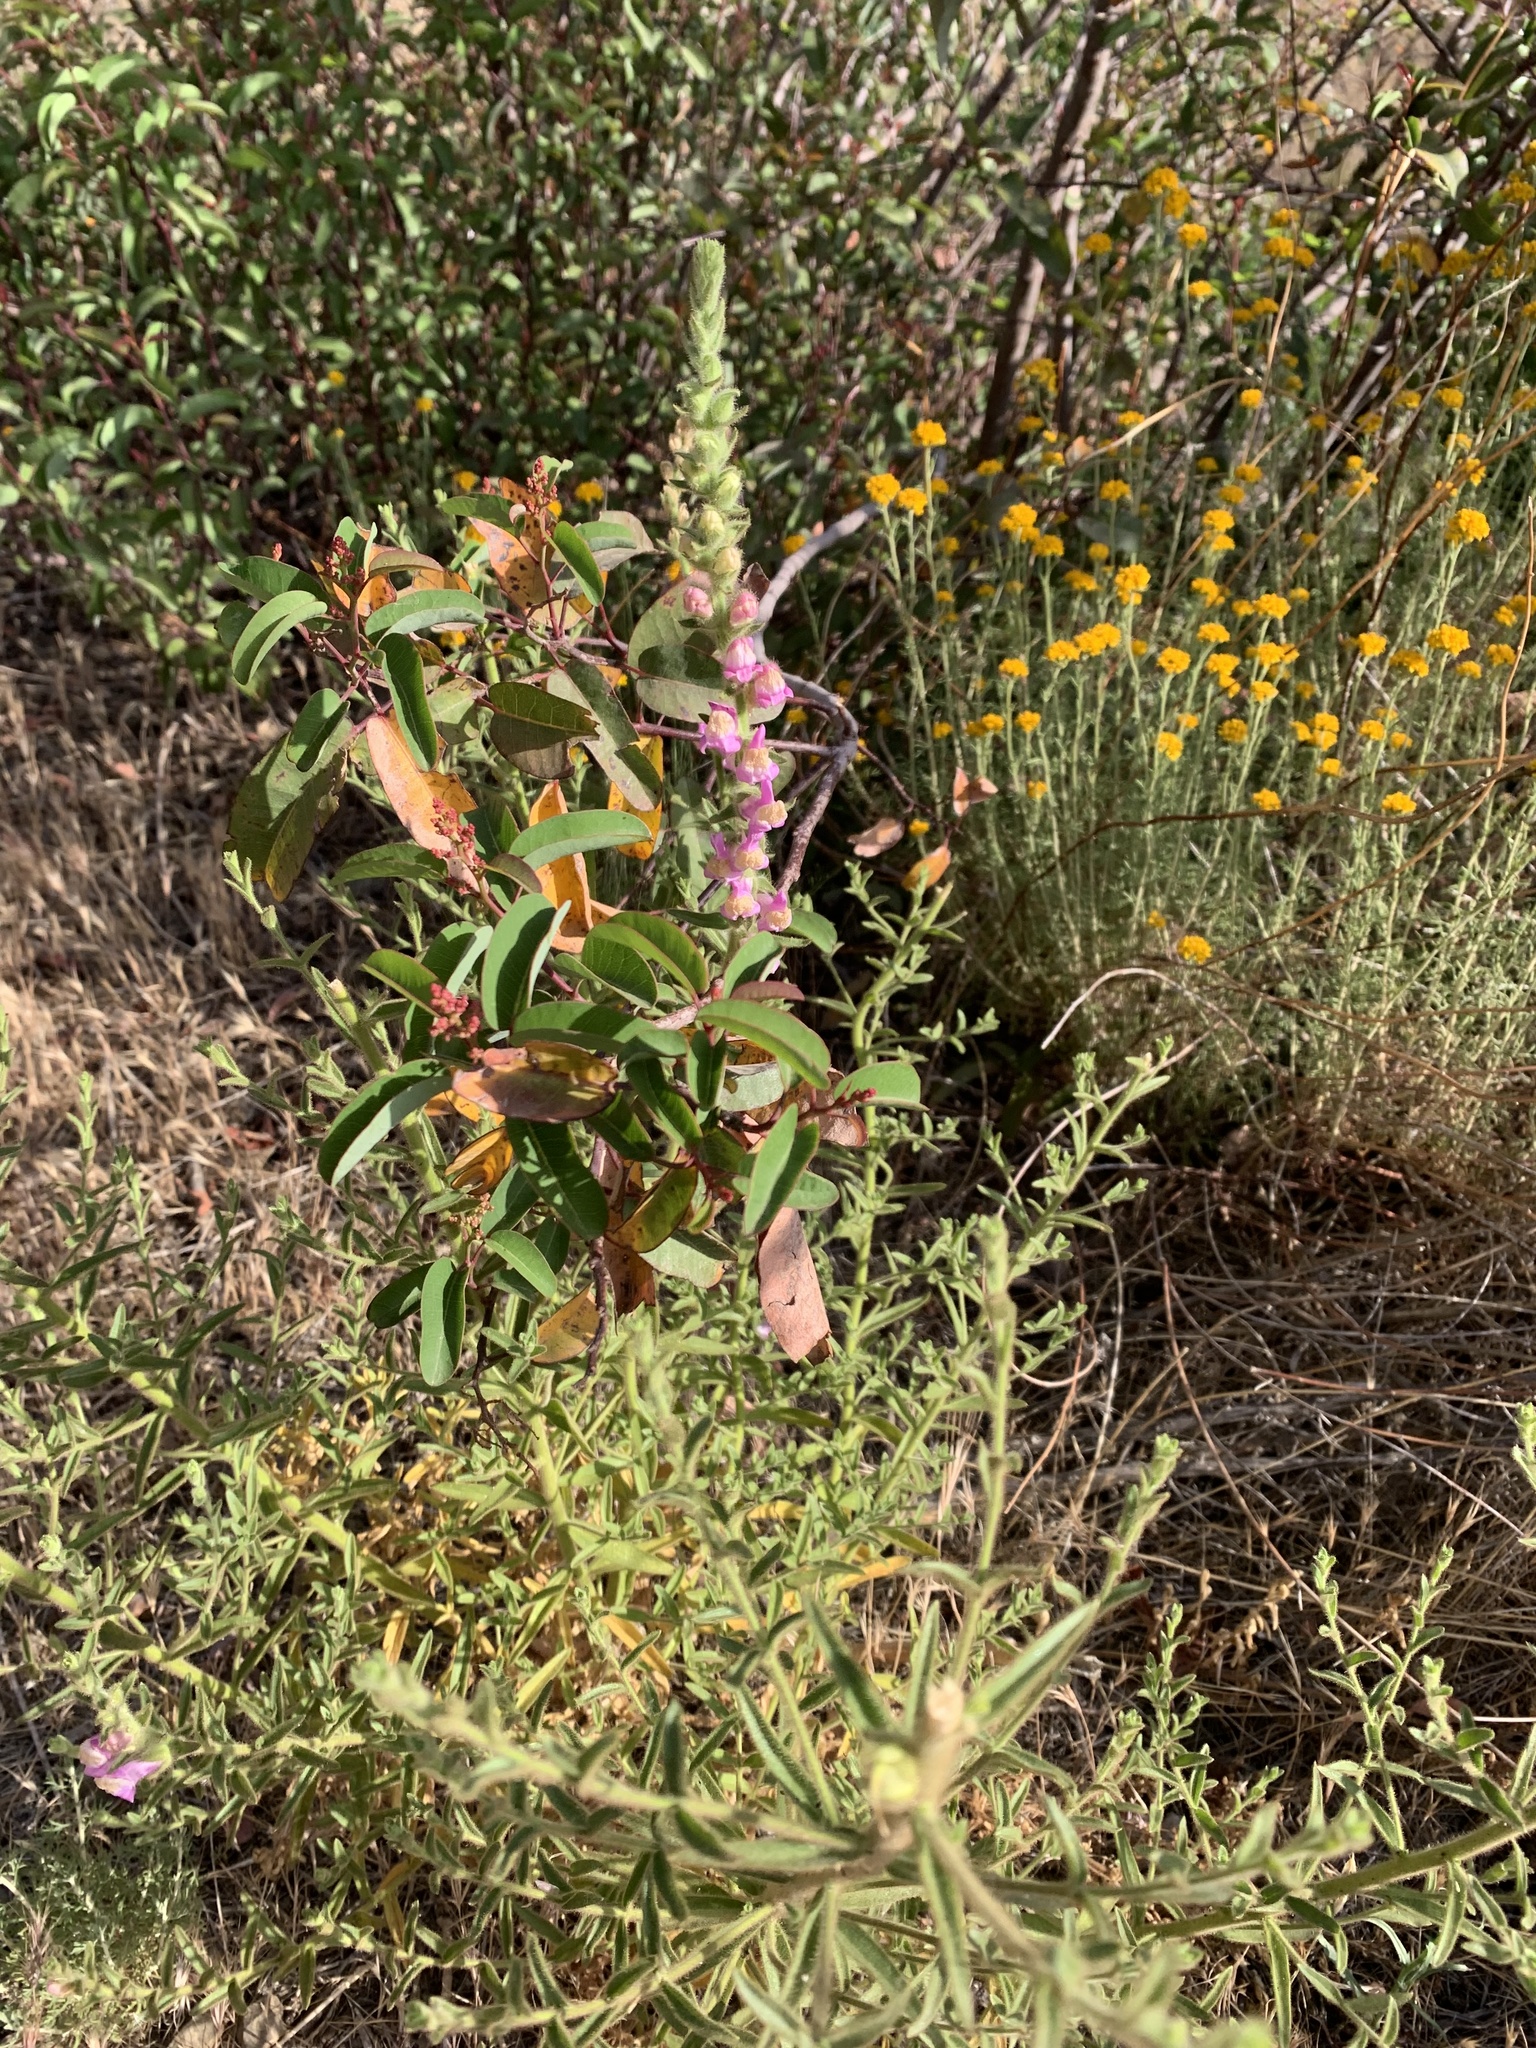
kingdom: Plantae
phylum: Tracheophyta
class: Magnoliopsida
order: Lamiales
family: Plantaginaceae
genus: Sairocarpus
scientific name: Sairocarpus multiflorus
